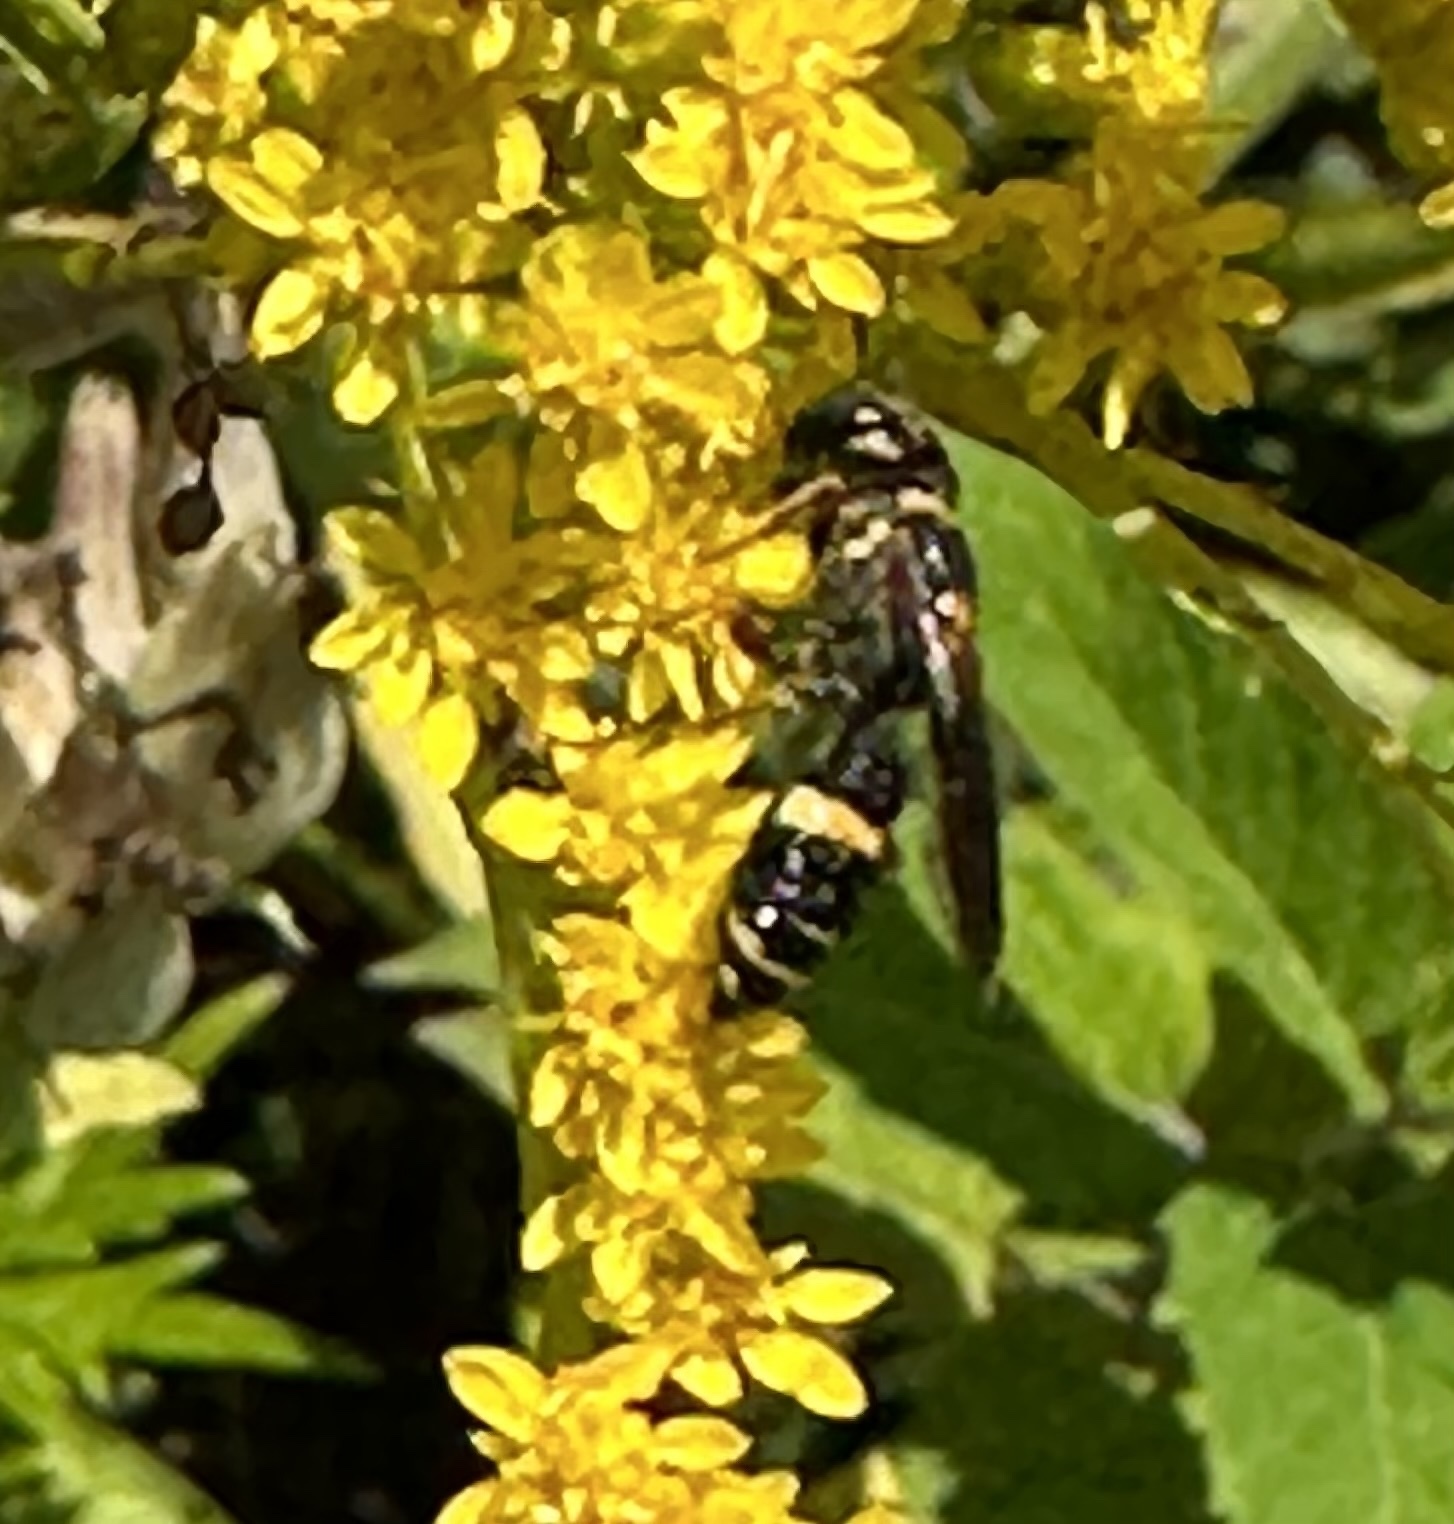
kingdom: Animalia
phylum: Arthropoda
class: Insecta
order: Hymenoptera
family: Crabronidae
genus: Philanthus
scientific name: Philanthus gibbosus
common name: Humped beewolf
